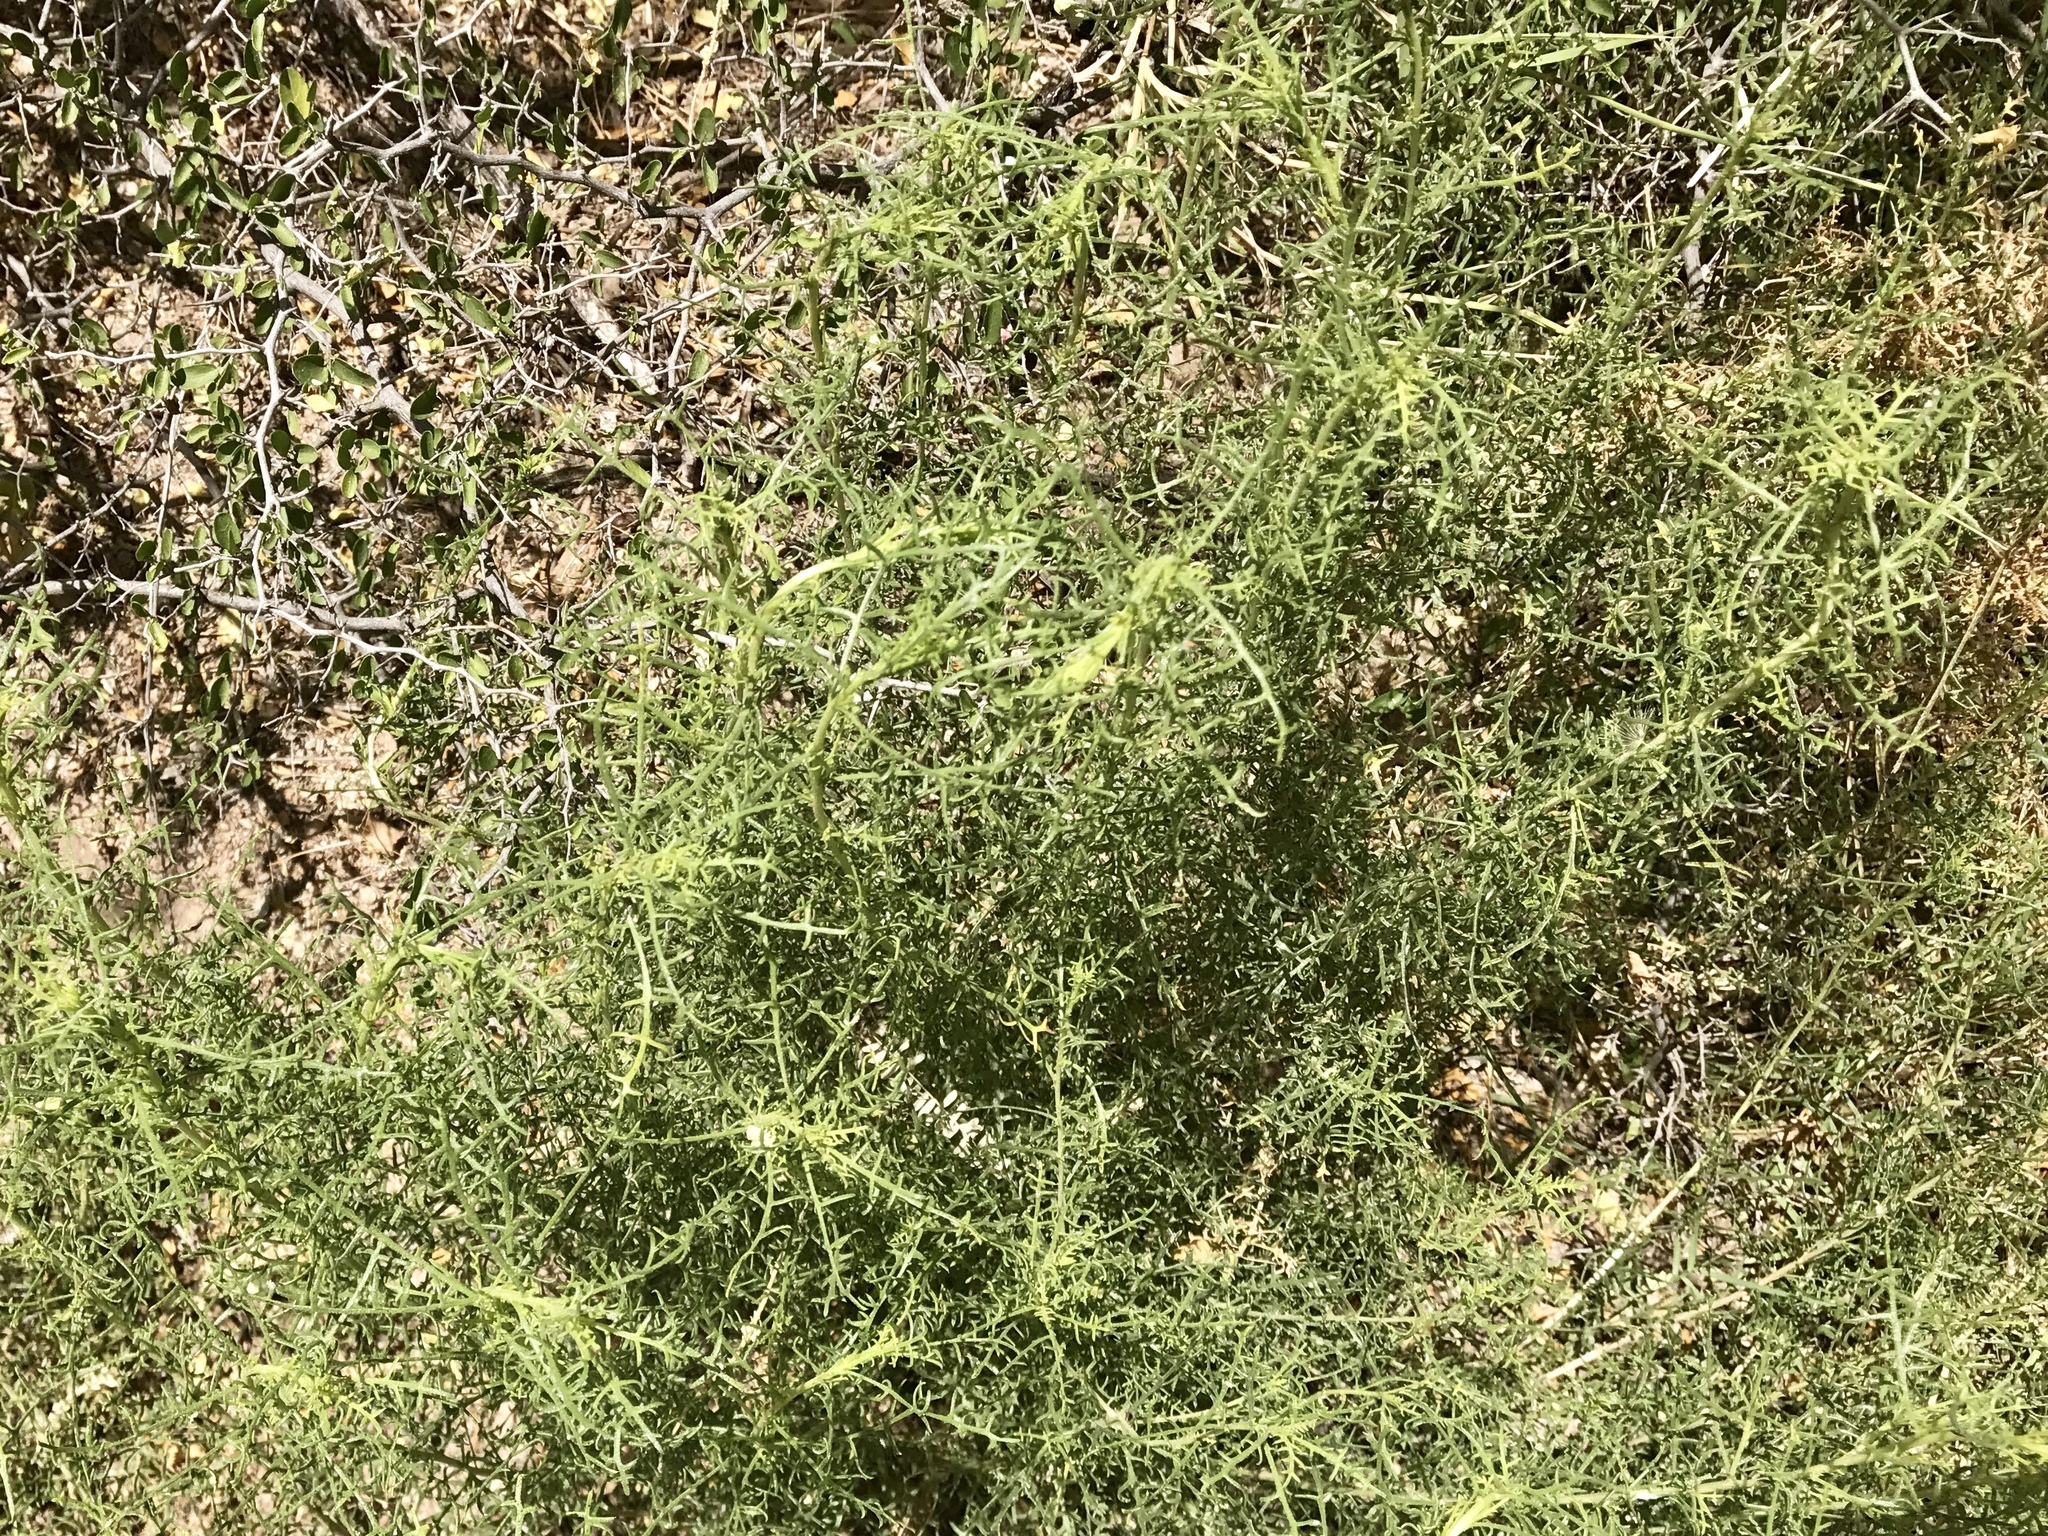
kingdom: Plantae
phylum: Tracheophyta
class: Magnoliopsida
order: Asterales
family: Asteraceae
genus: Isocoma
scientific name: Isocoma tenuisecta
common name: Burroweed
